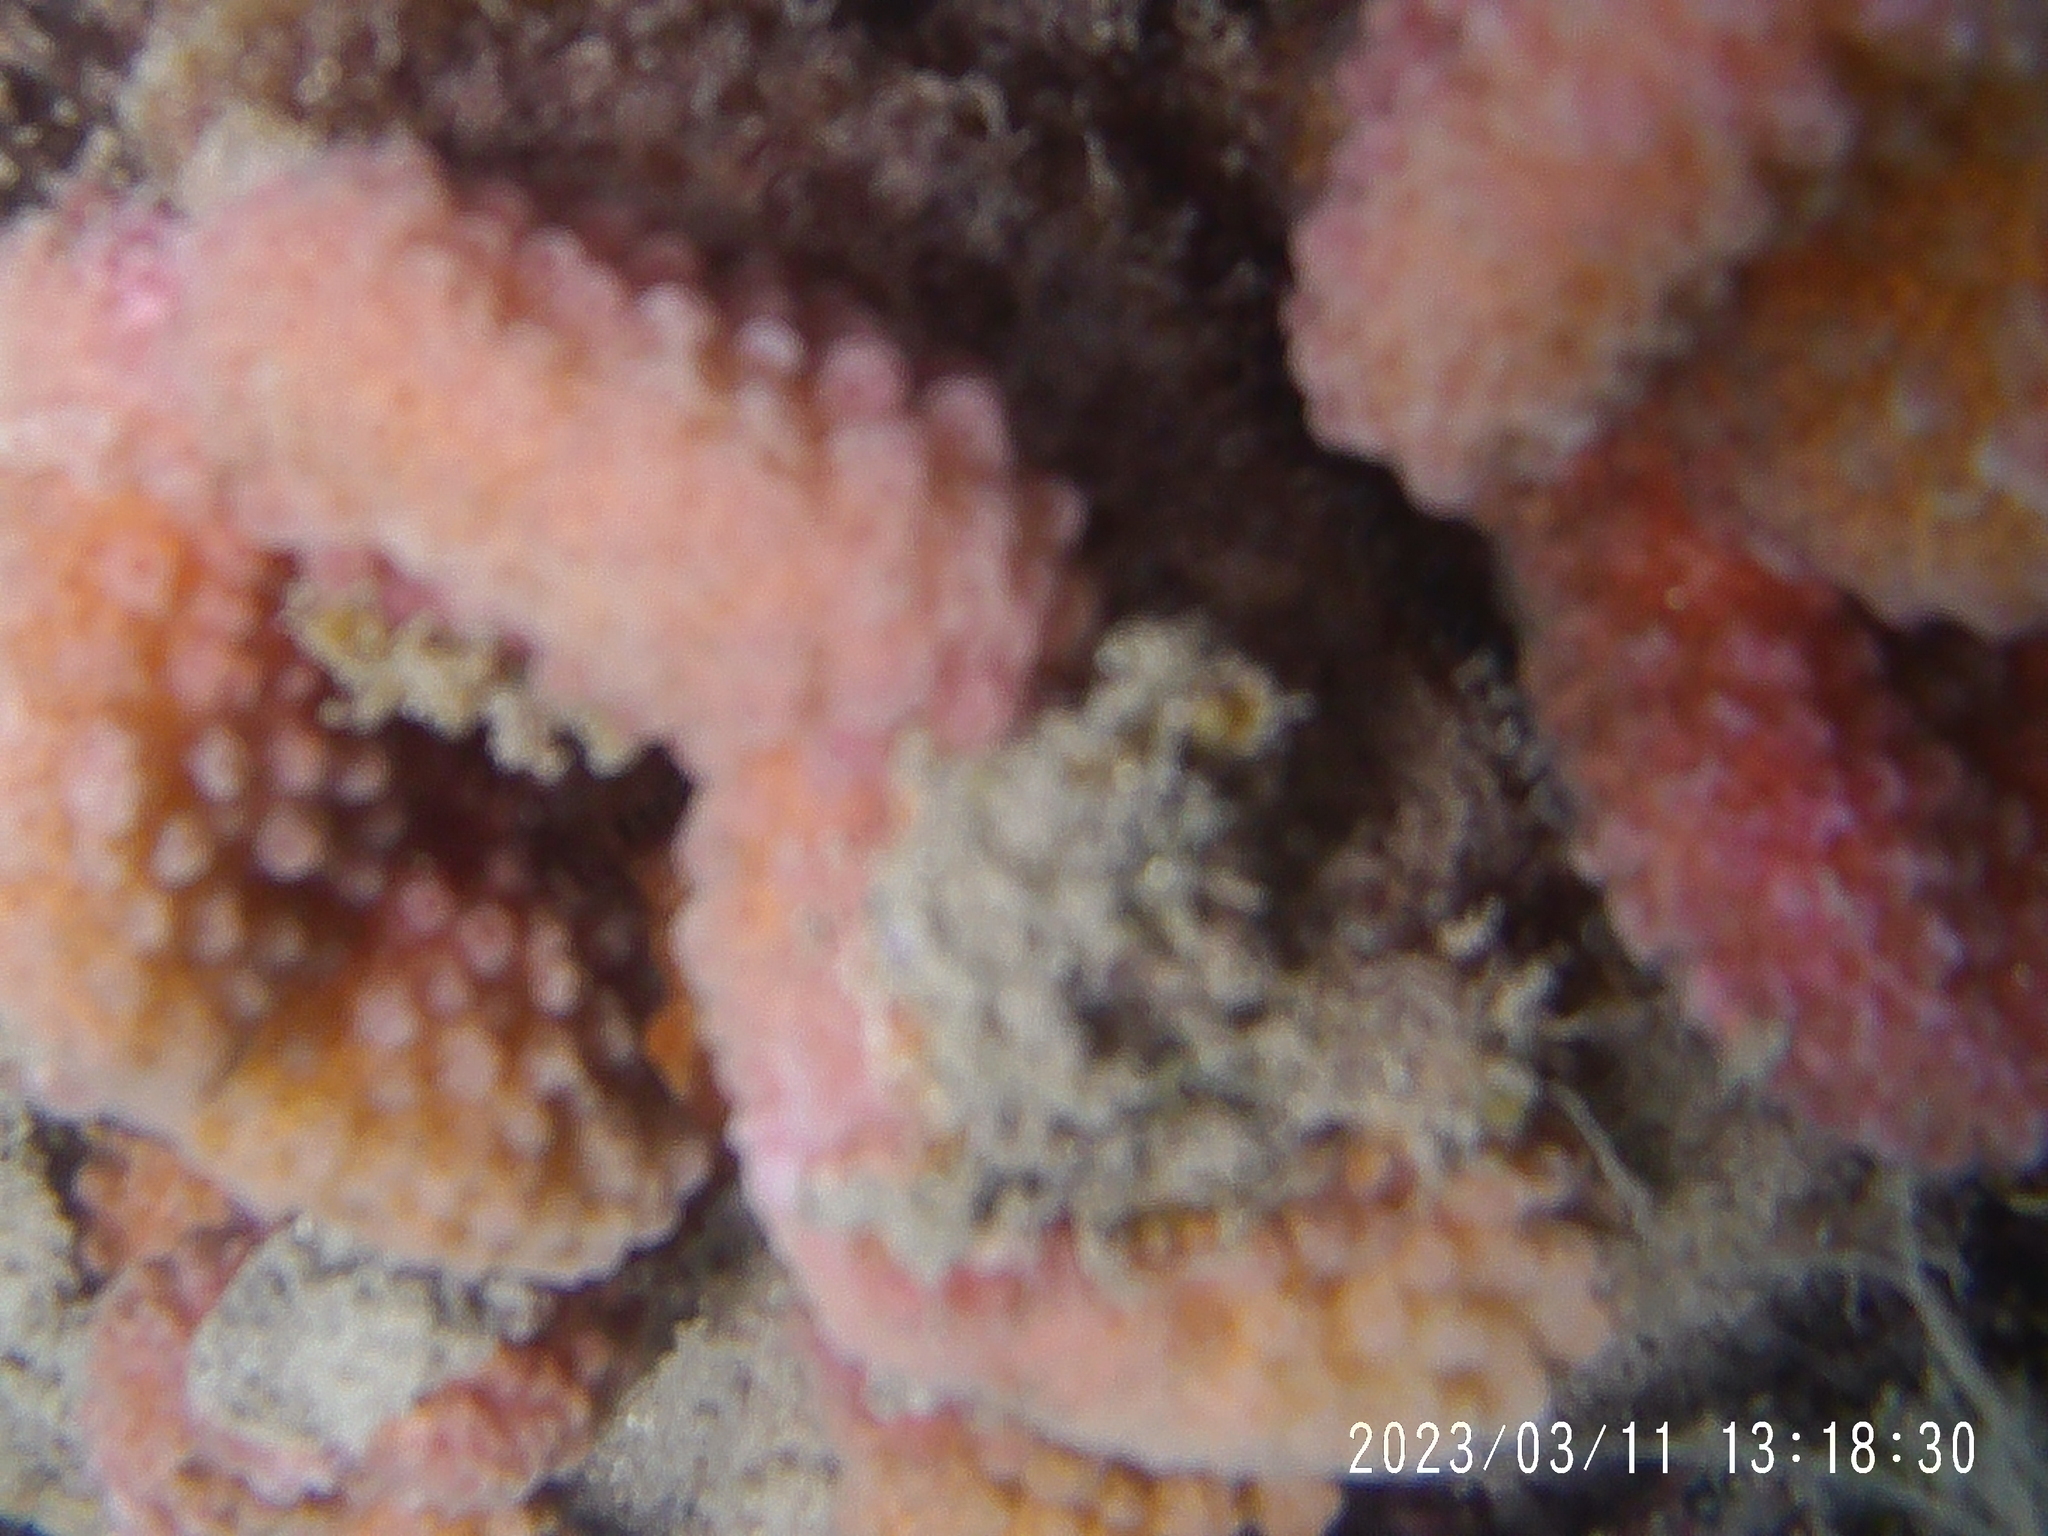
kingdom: Animalia
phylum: Cnidaria
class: Anthozoa
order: Scleractinia
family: Pocilloporidae
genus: Pocillopora
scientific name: Pocillopora meandrina
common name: Cauliflower coral
